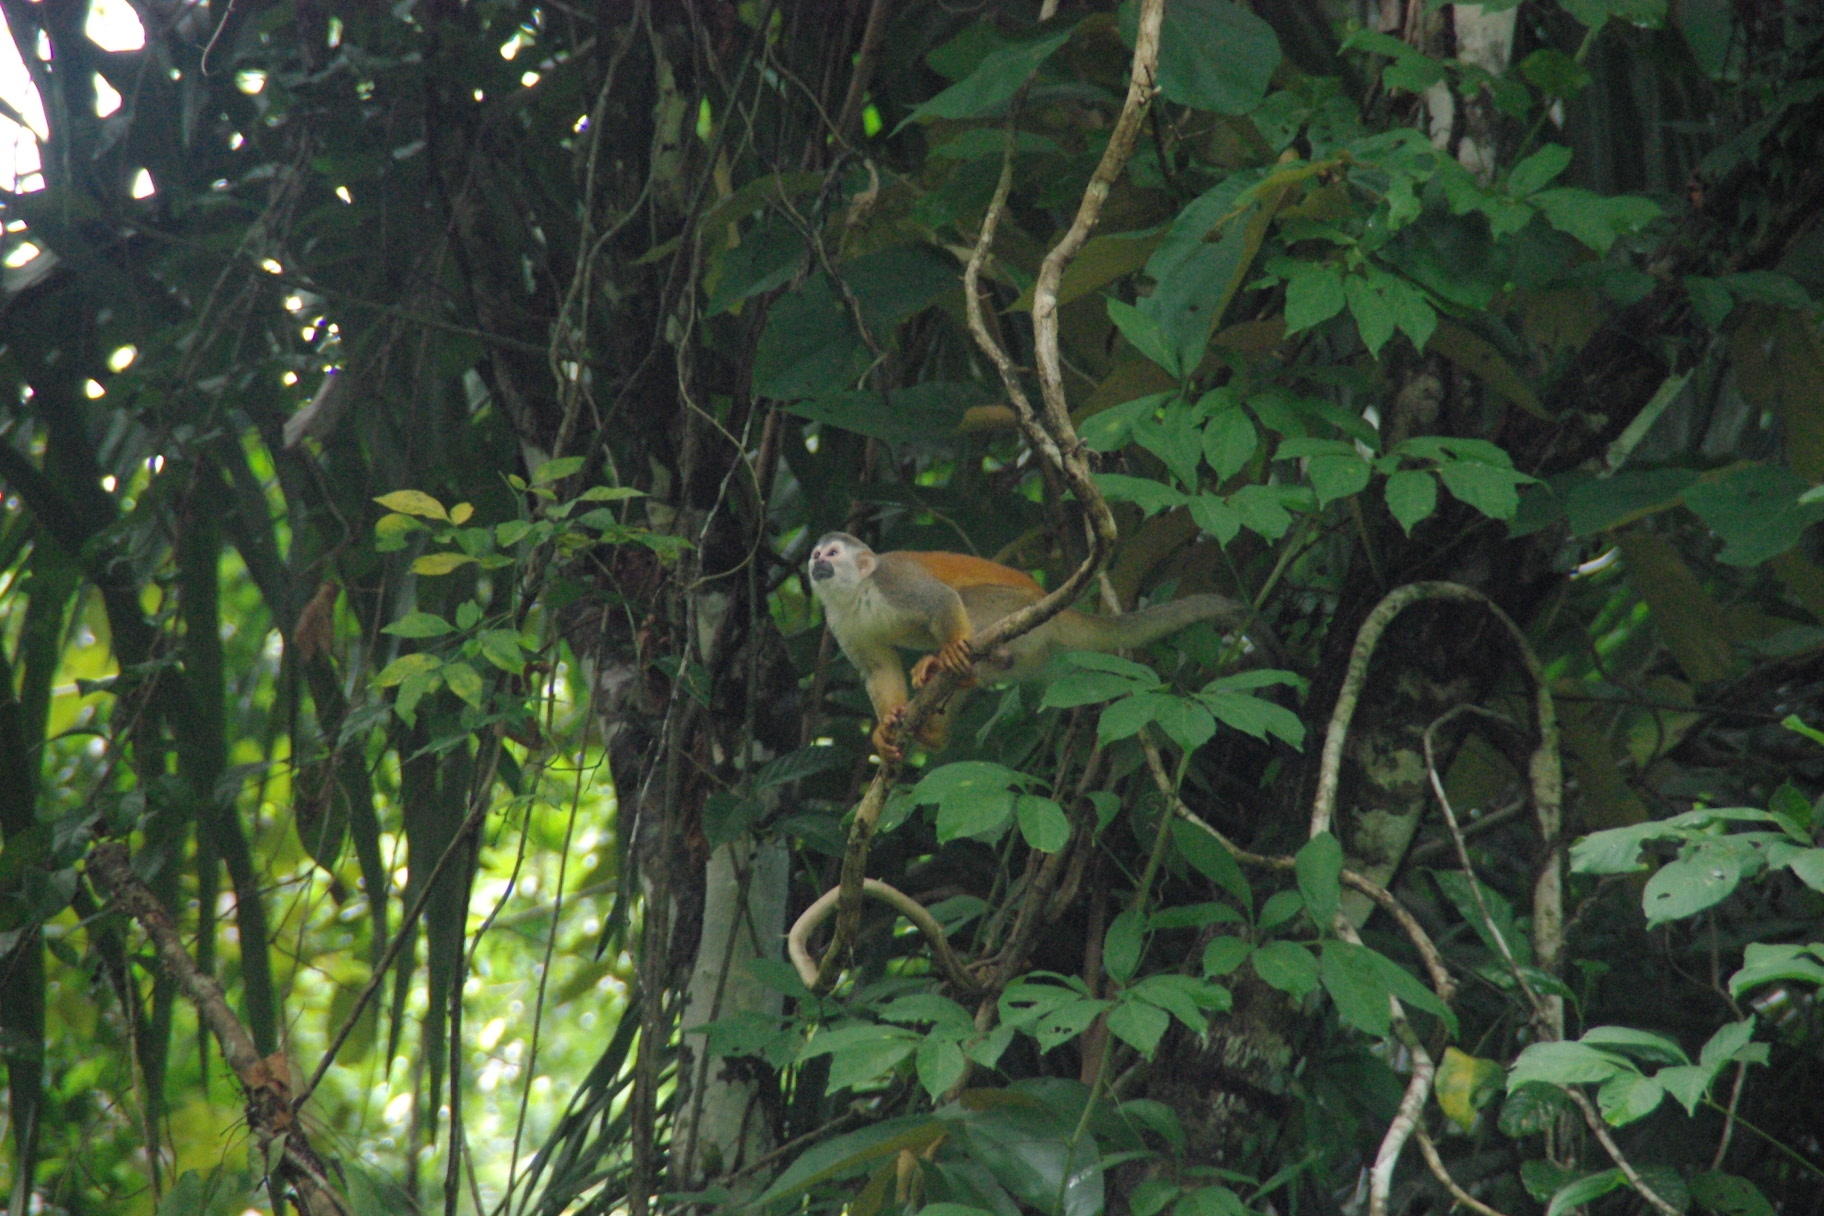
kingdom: Animalia
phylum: Chordata
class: Mammalia
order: Primates
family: Cebidae
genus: Saimiri
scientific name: Saimiri oerstedii
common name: Central american squirrel monkey
